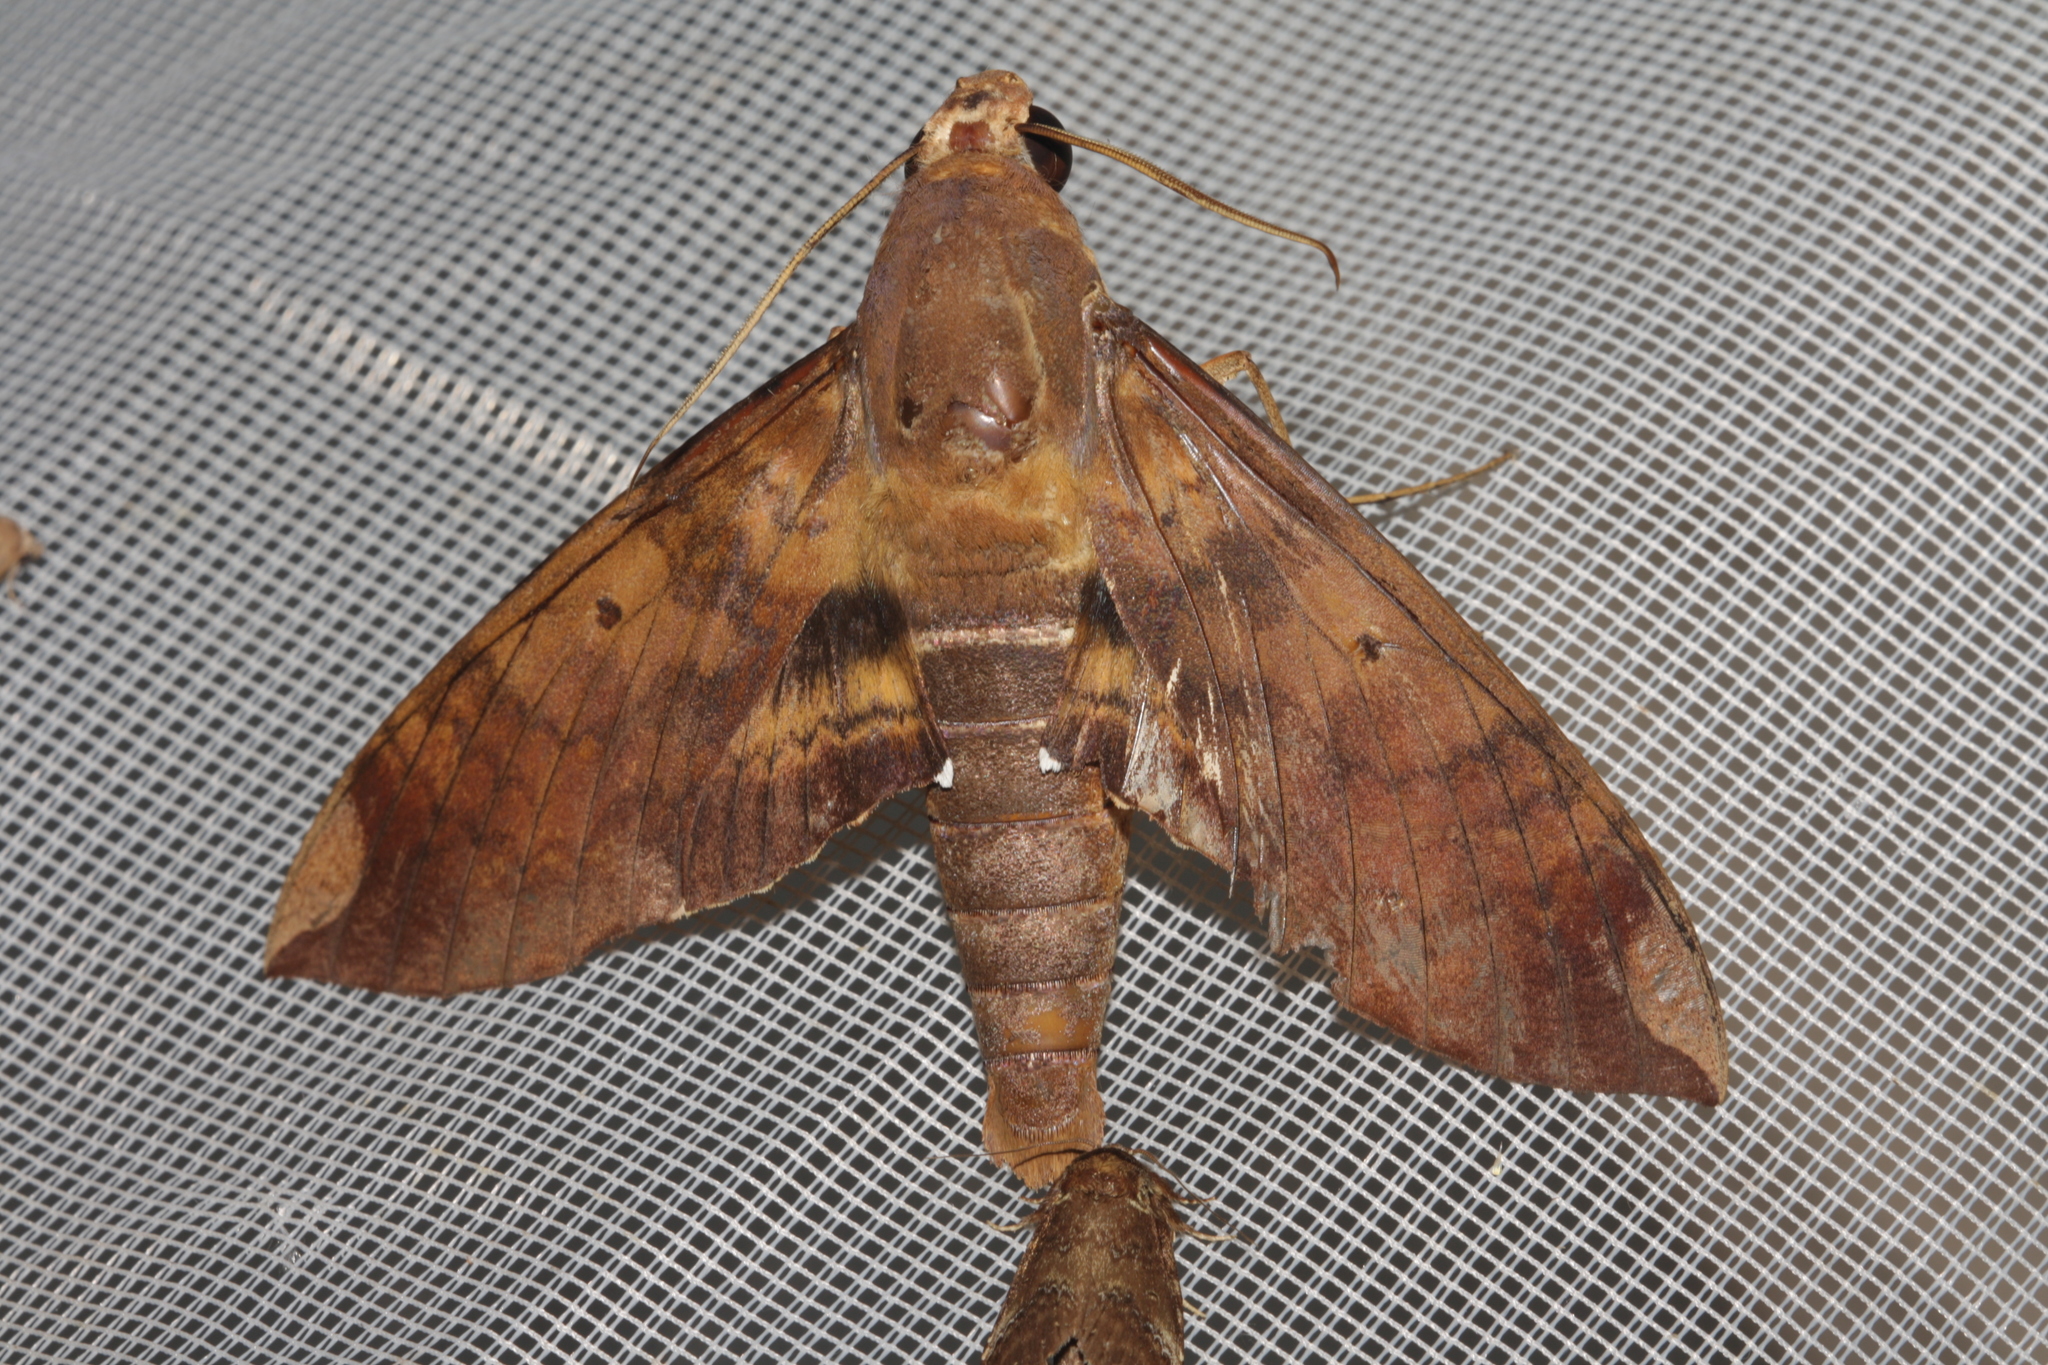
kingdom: Animalia
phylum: Arthropoda
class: Insecta
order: Lepidoptera
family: Sphingidae
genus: Pachylia
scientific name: Pachylia ficus
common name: Fig sphinx
